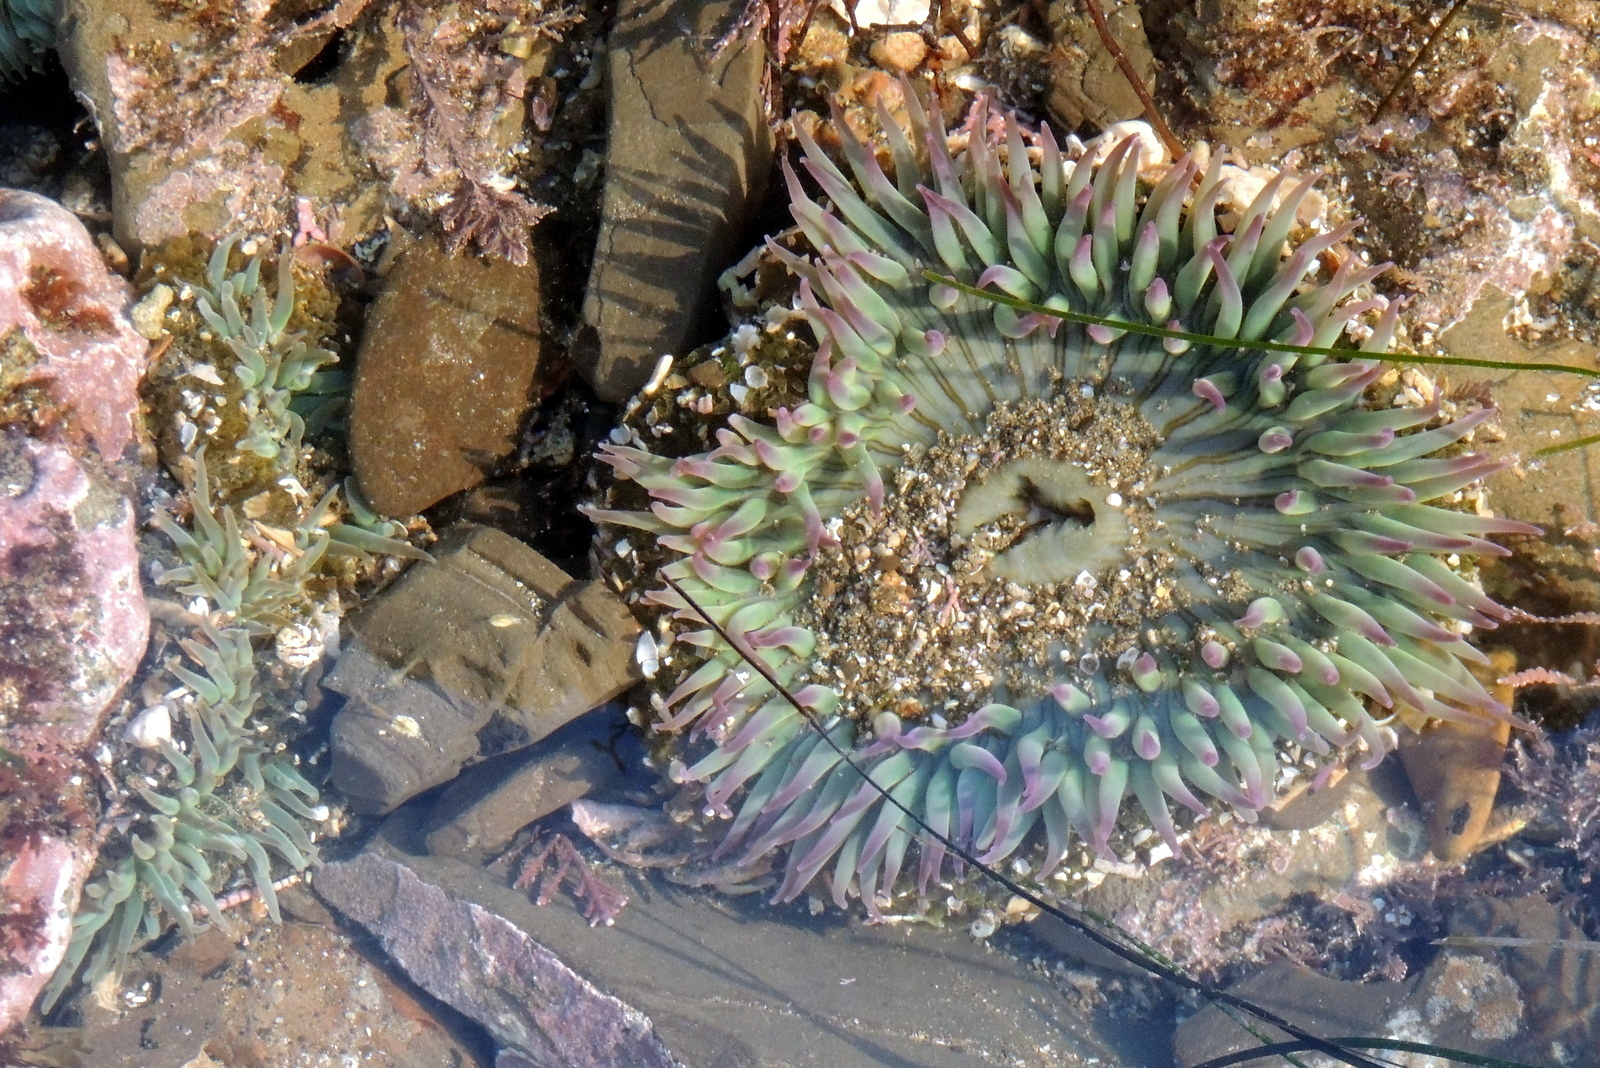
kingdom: Animalia
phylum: Cnidaria
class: Anthozoa
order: Actiniaria
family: Actiniidae
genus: Anthopleura
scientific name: Anthopleura sola
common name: Sun anemone
